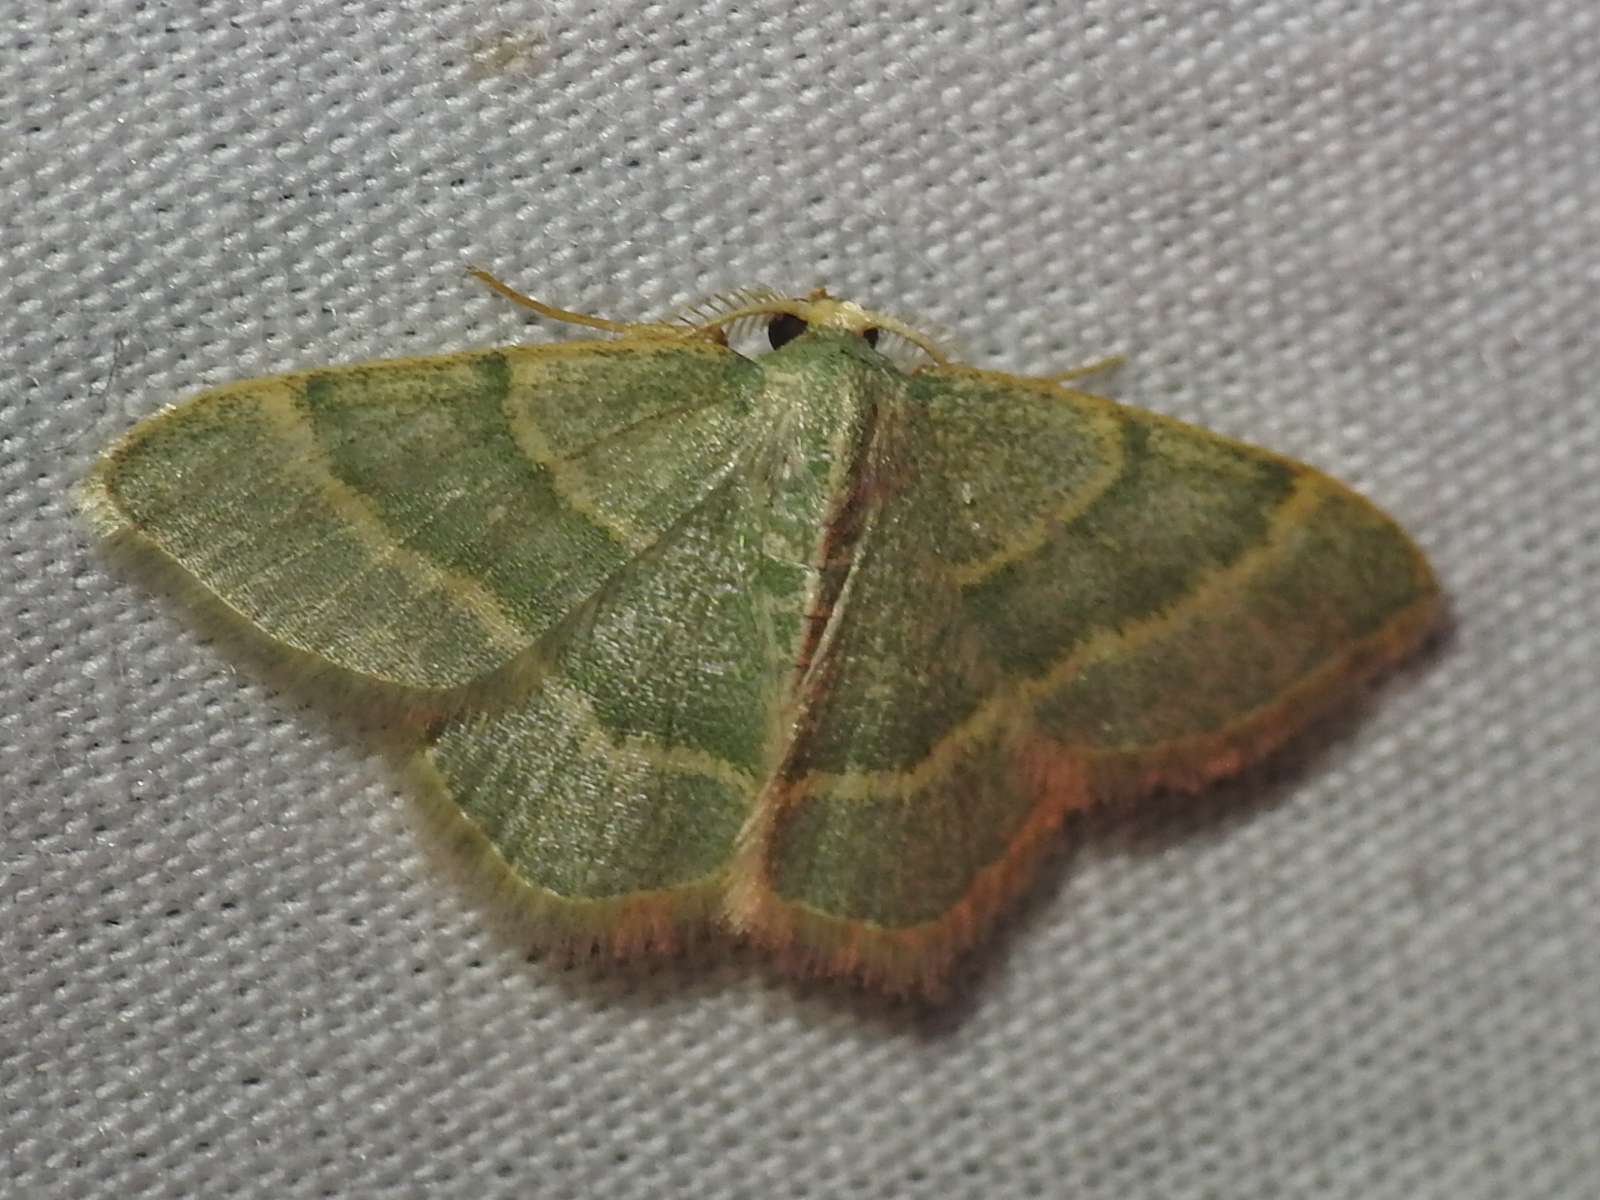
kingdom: Animalia
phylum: Arthropoda
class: Insecta
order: Lepidoptera
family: Geometridae
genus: Chlorochlamys
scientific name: Chlorochlamys chloroleucaria
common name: Blackberry looper
